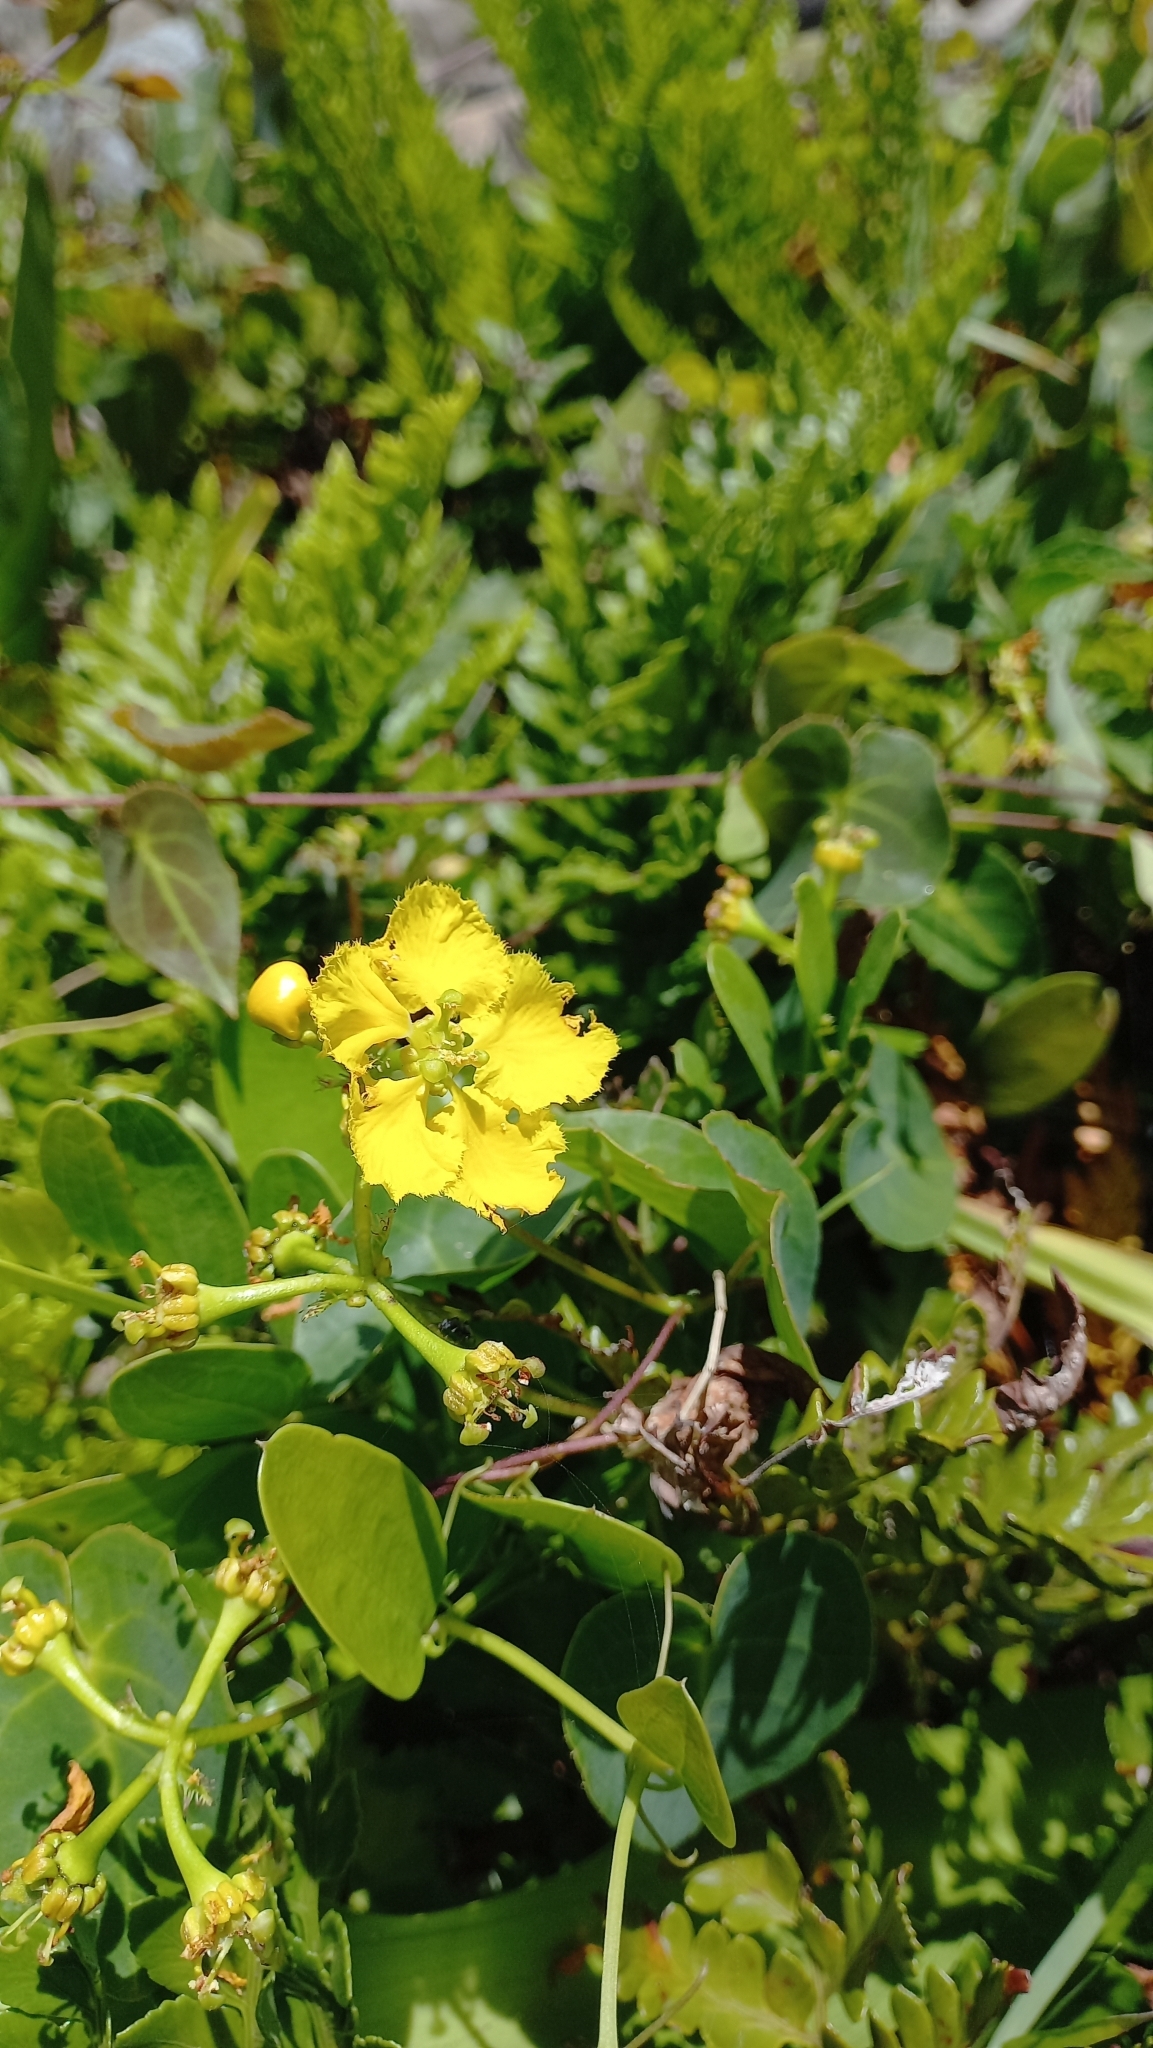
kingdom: Plantae
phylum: Tracheophyta
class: Magnoliopsida
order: Malpighiales
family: Malpighiaceae
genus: Stigmaphyllon
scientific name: Stigmaphyllon ciliatum
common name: Amazonvine
